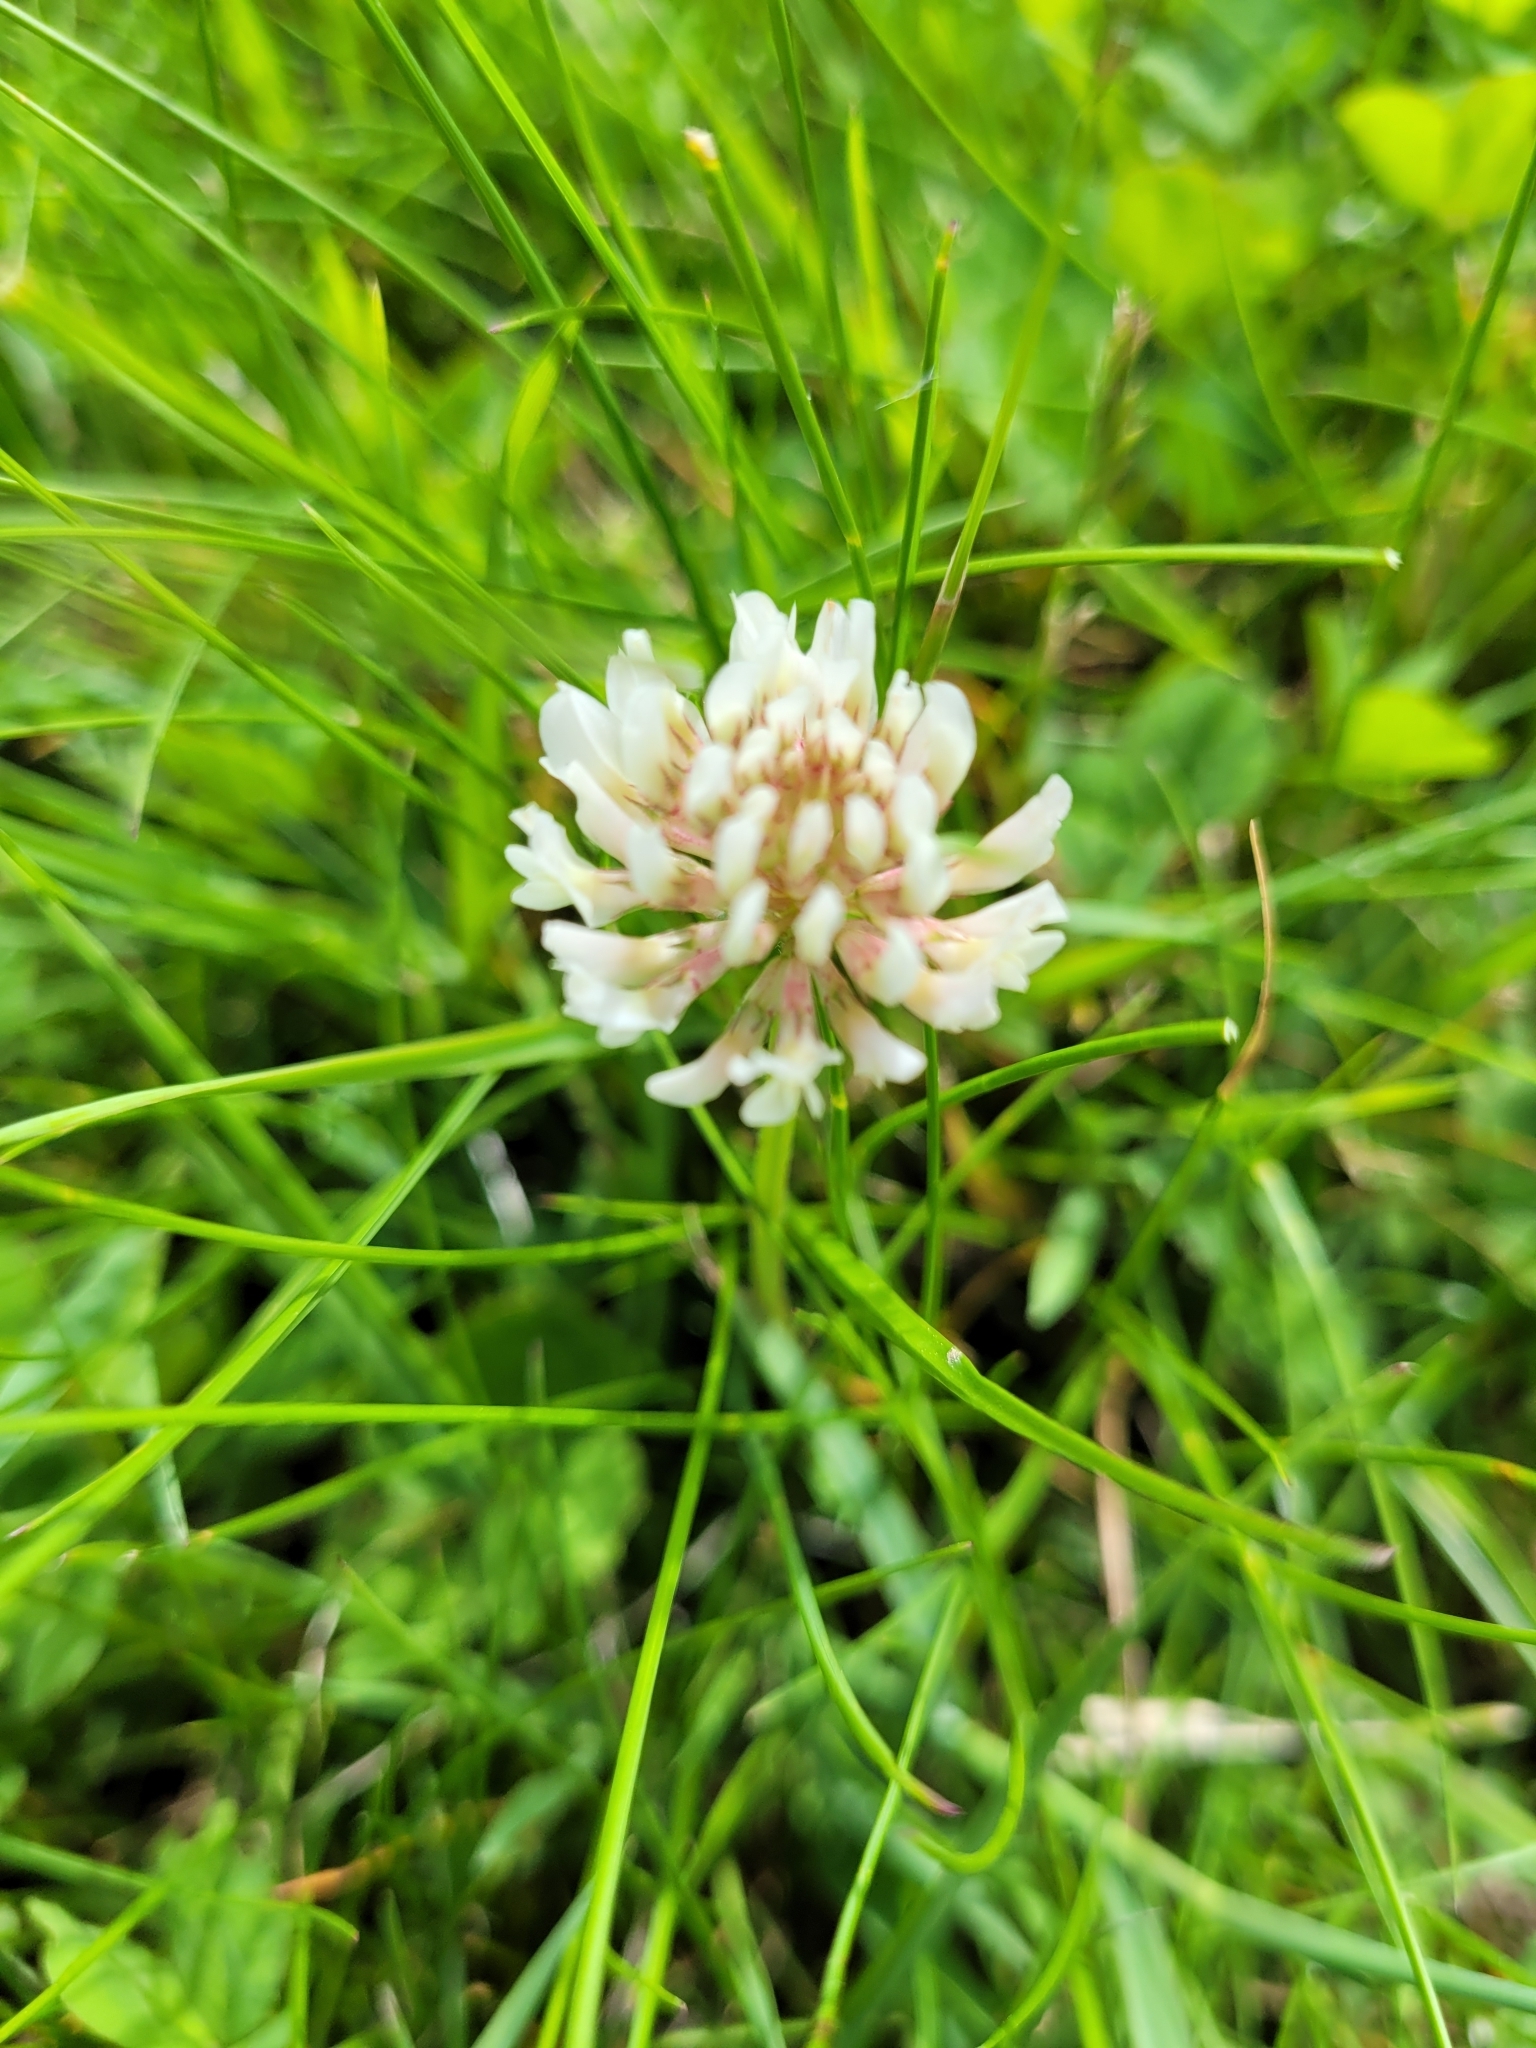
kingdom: Plantae
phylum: Tracheophyta
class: Magnoliopsida
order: Fabales
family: Fabaceae
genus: Trifolium
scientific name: Trifolium repens
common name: White clover
